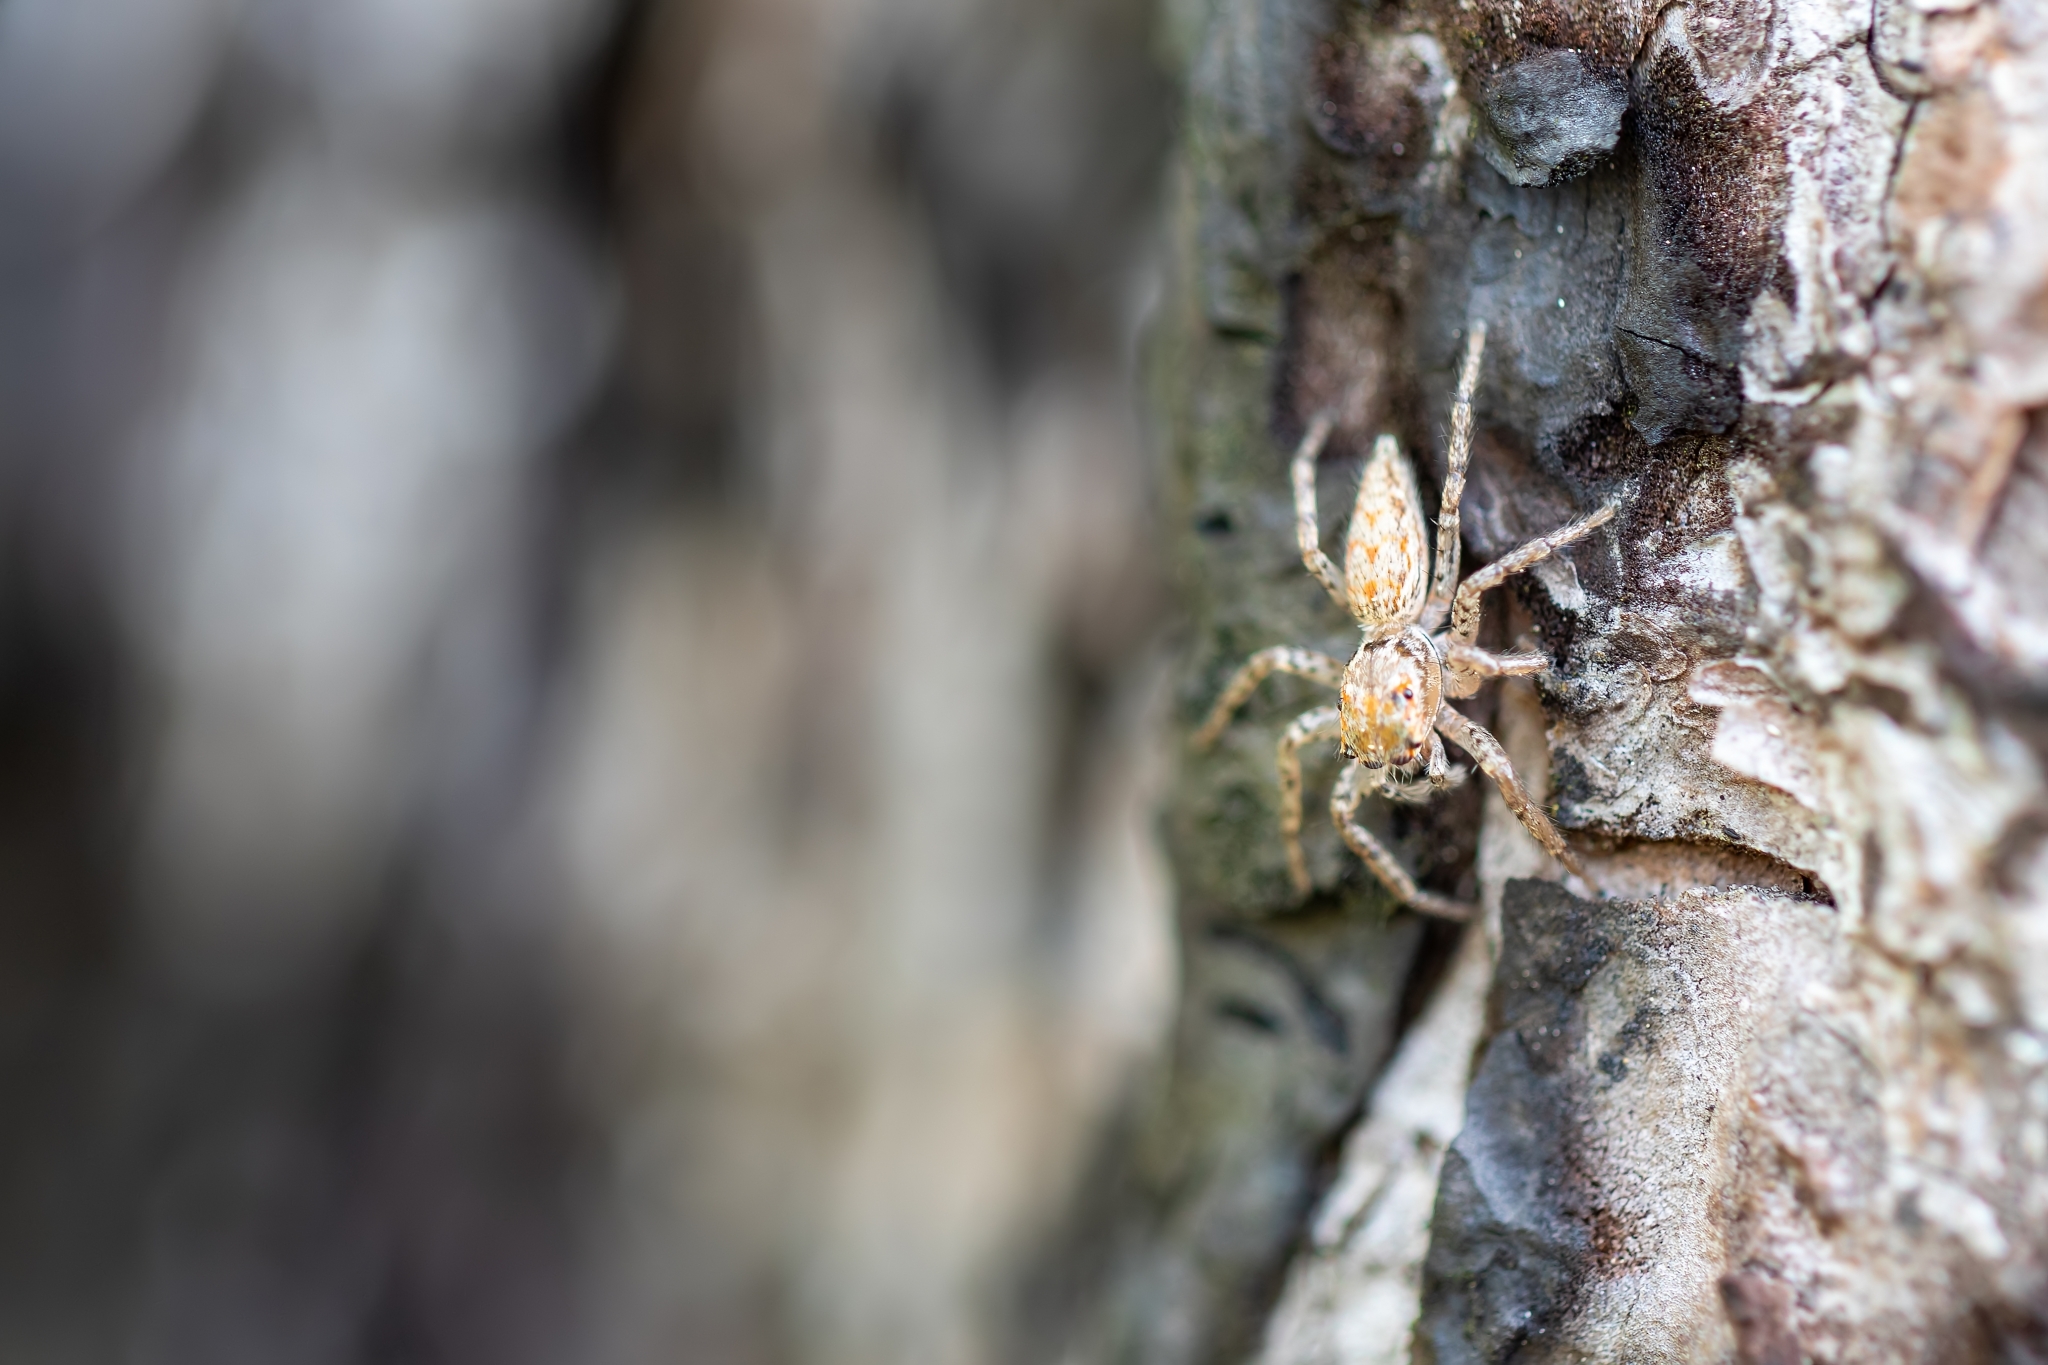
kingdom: Animalia
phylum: Arthropoda
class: Arachnida
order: Araneae
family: Salticidae
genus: Paramaevia
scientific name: Paramaevia michelsoni
